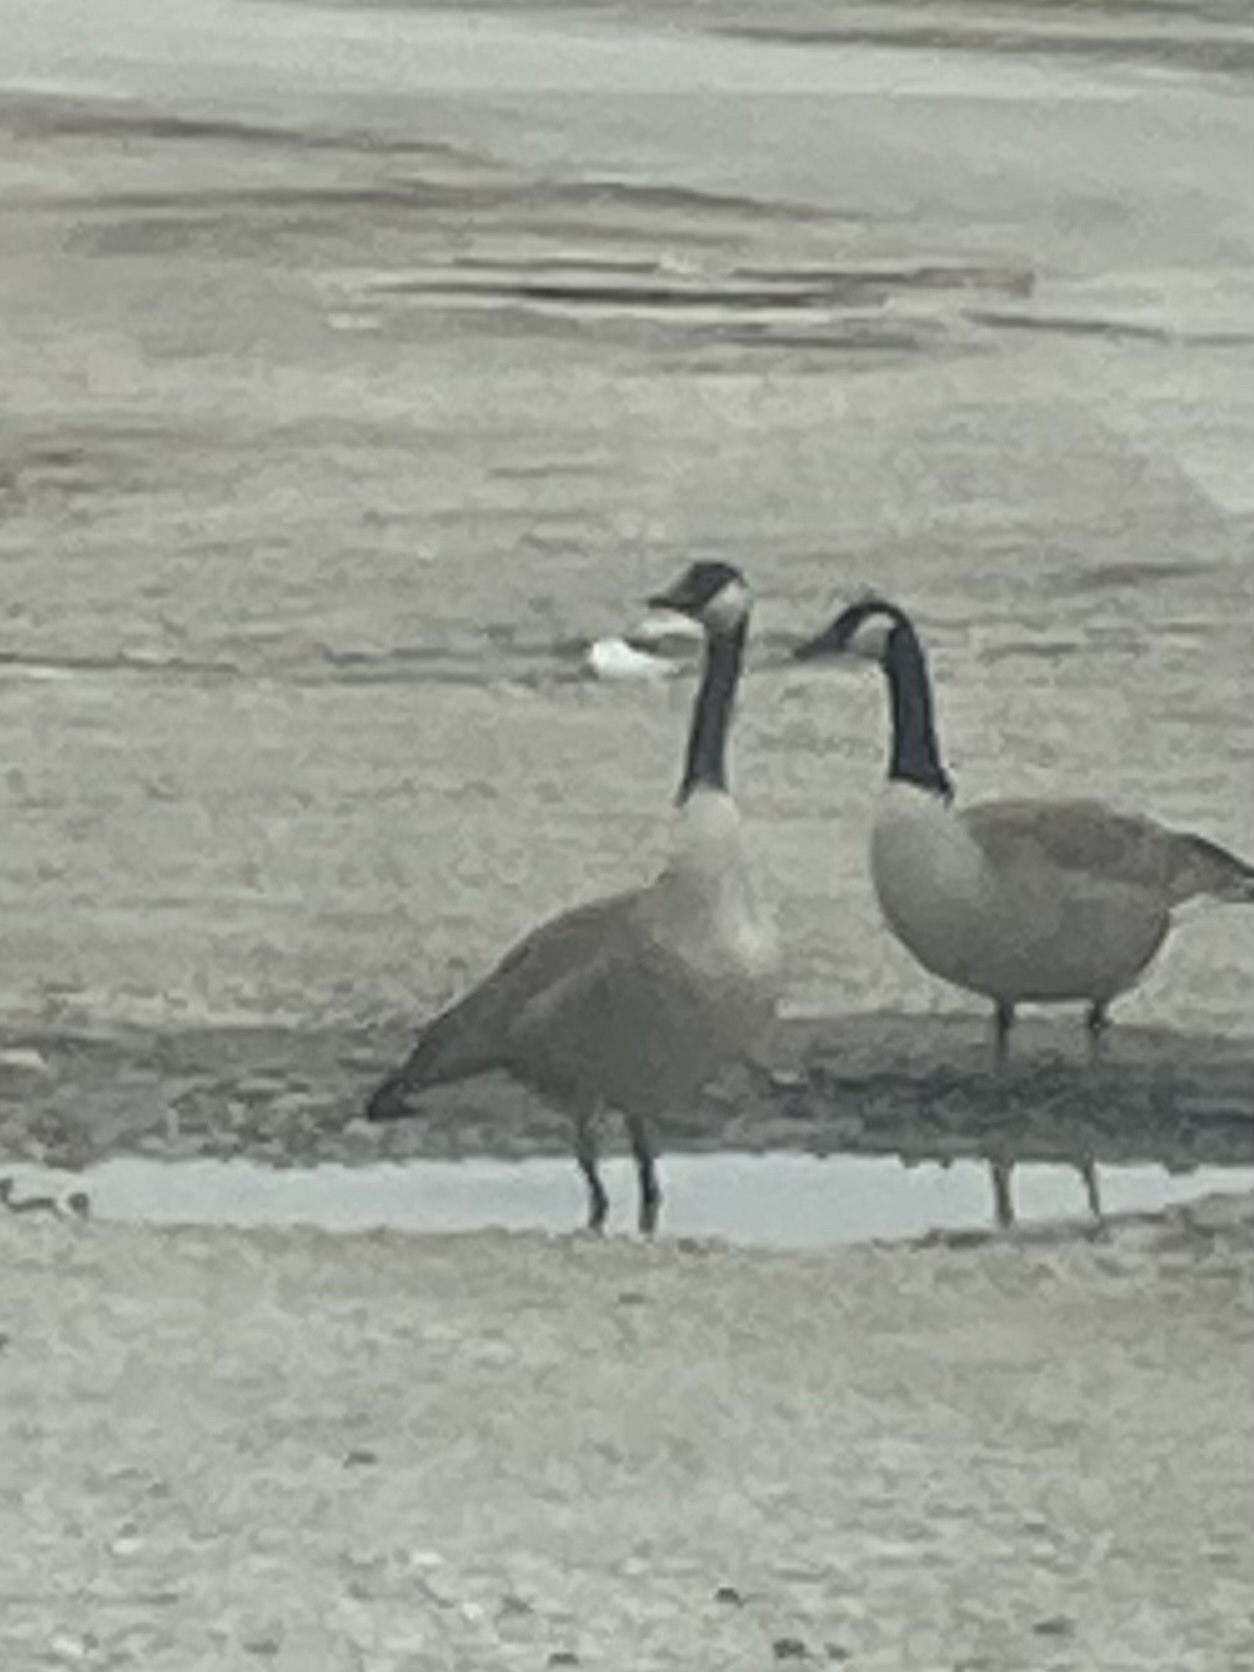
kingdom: Animalia
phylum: Chordata
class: Aves
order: Anseriformes
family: Anatidae
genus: Branta
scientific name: Branta canadensis
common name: Canada goose
